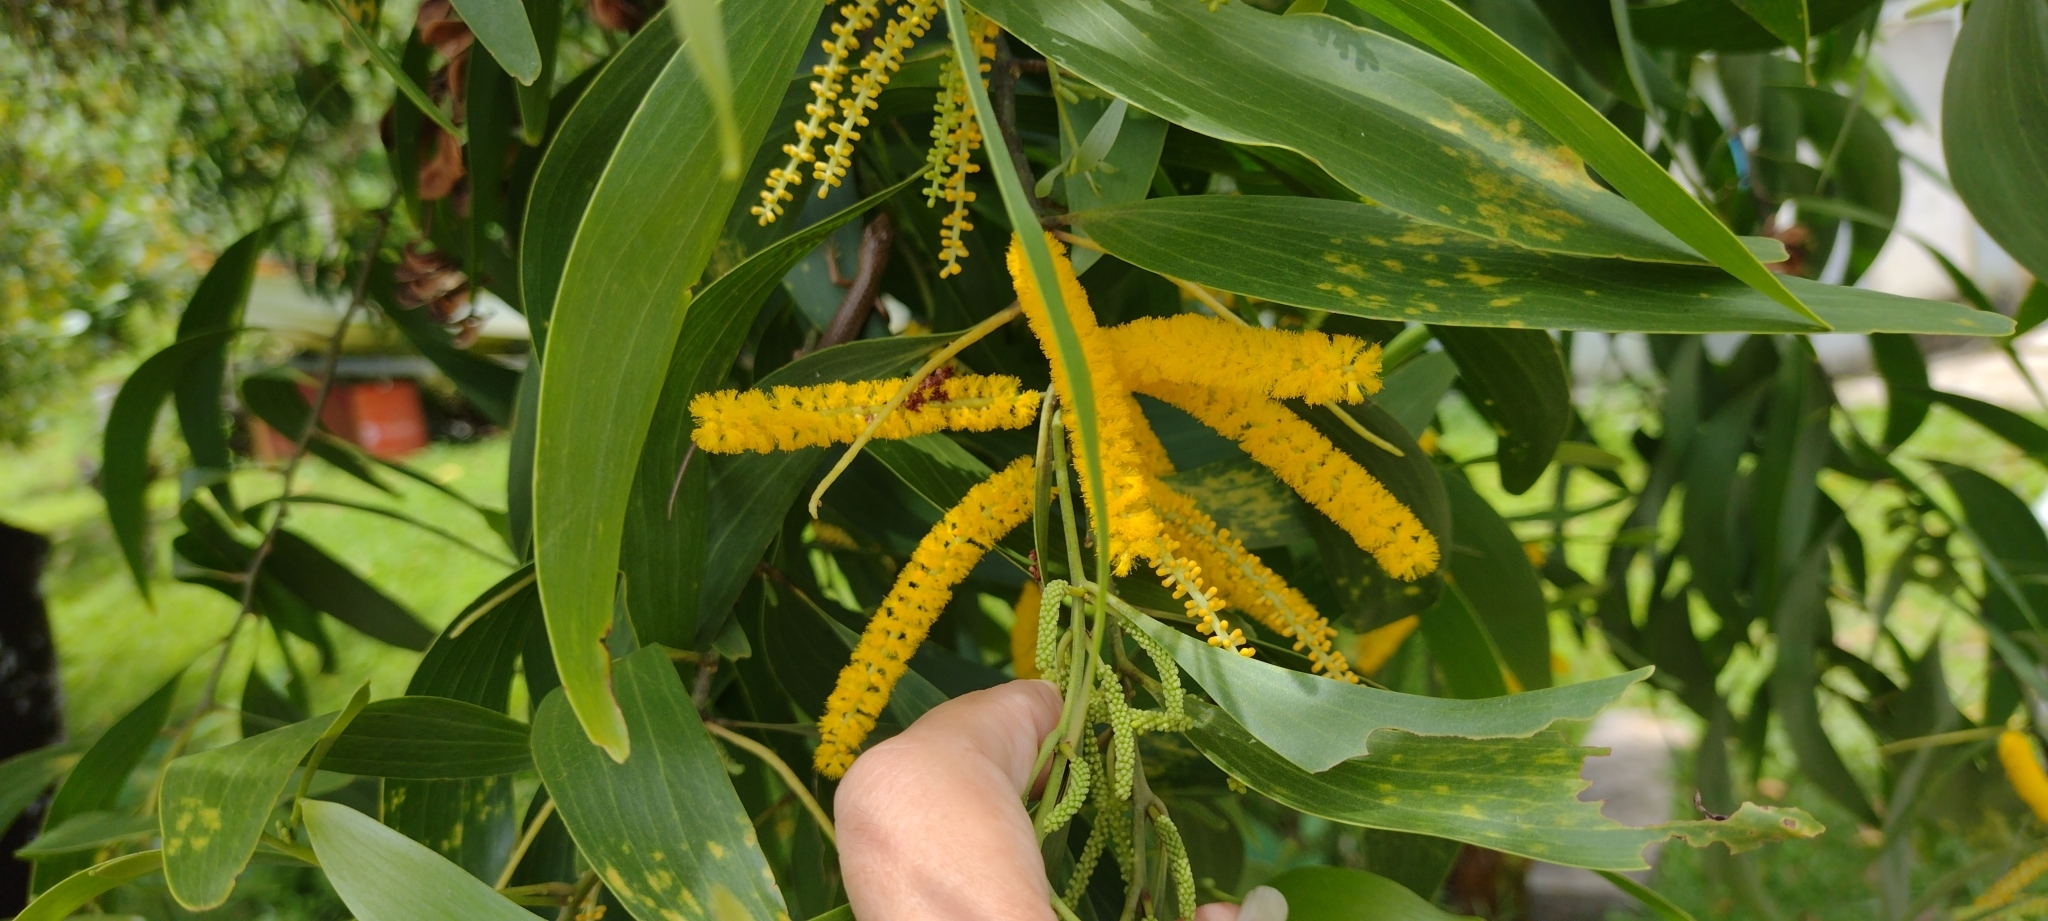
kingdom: Plantae
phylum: Tracheophyta
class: Magnoliopsida
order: Fabales
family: Fabaceae
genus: Acacia
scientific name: Acacia auriculiformis
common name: Earleaf acacia
